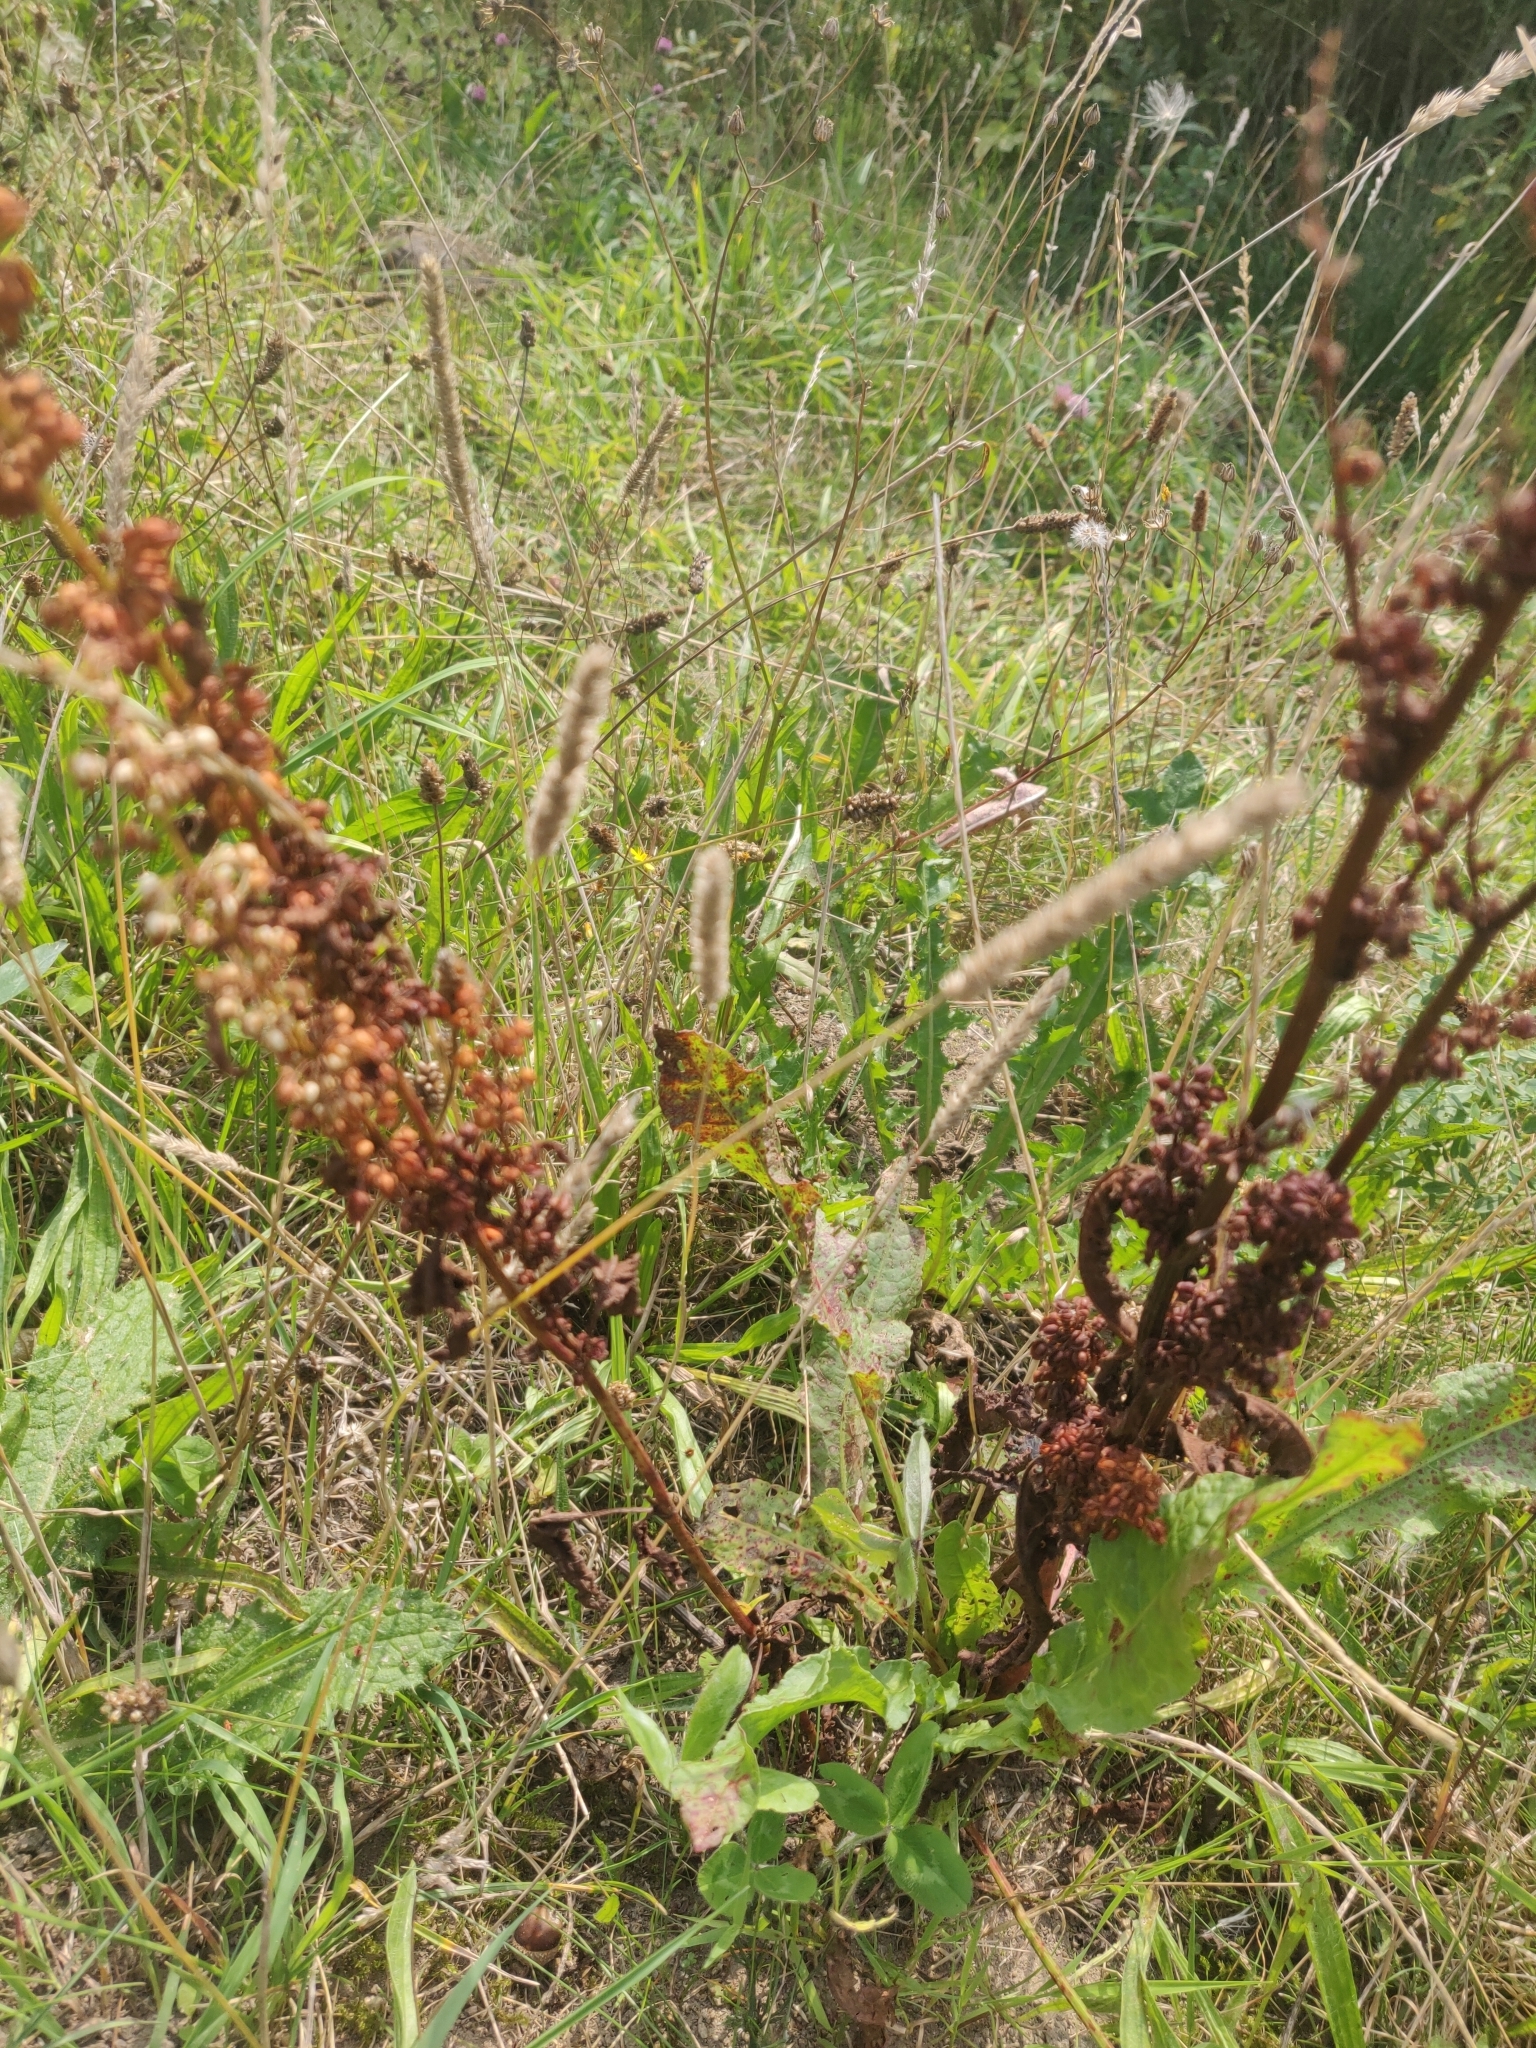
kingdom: Plantae
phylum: Tracheophyta
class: Magnoliopsida
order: Caryophyllales
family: Polygonaceae
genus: Rumex
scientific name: Rumex crispus
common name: Curled dock
